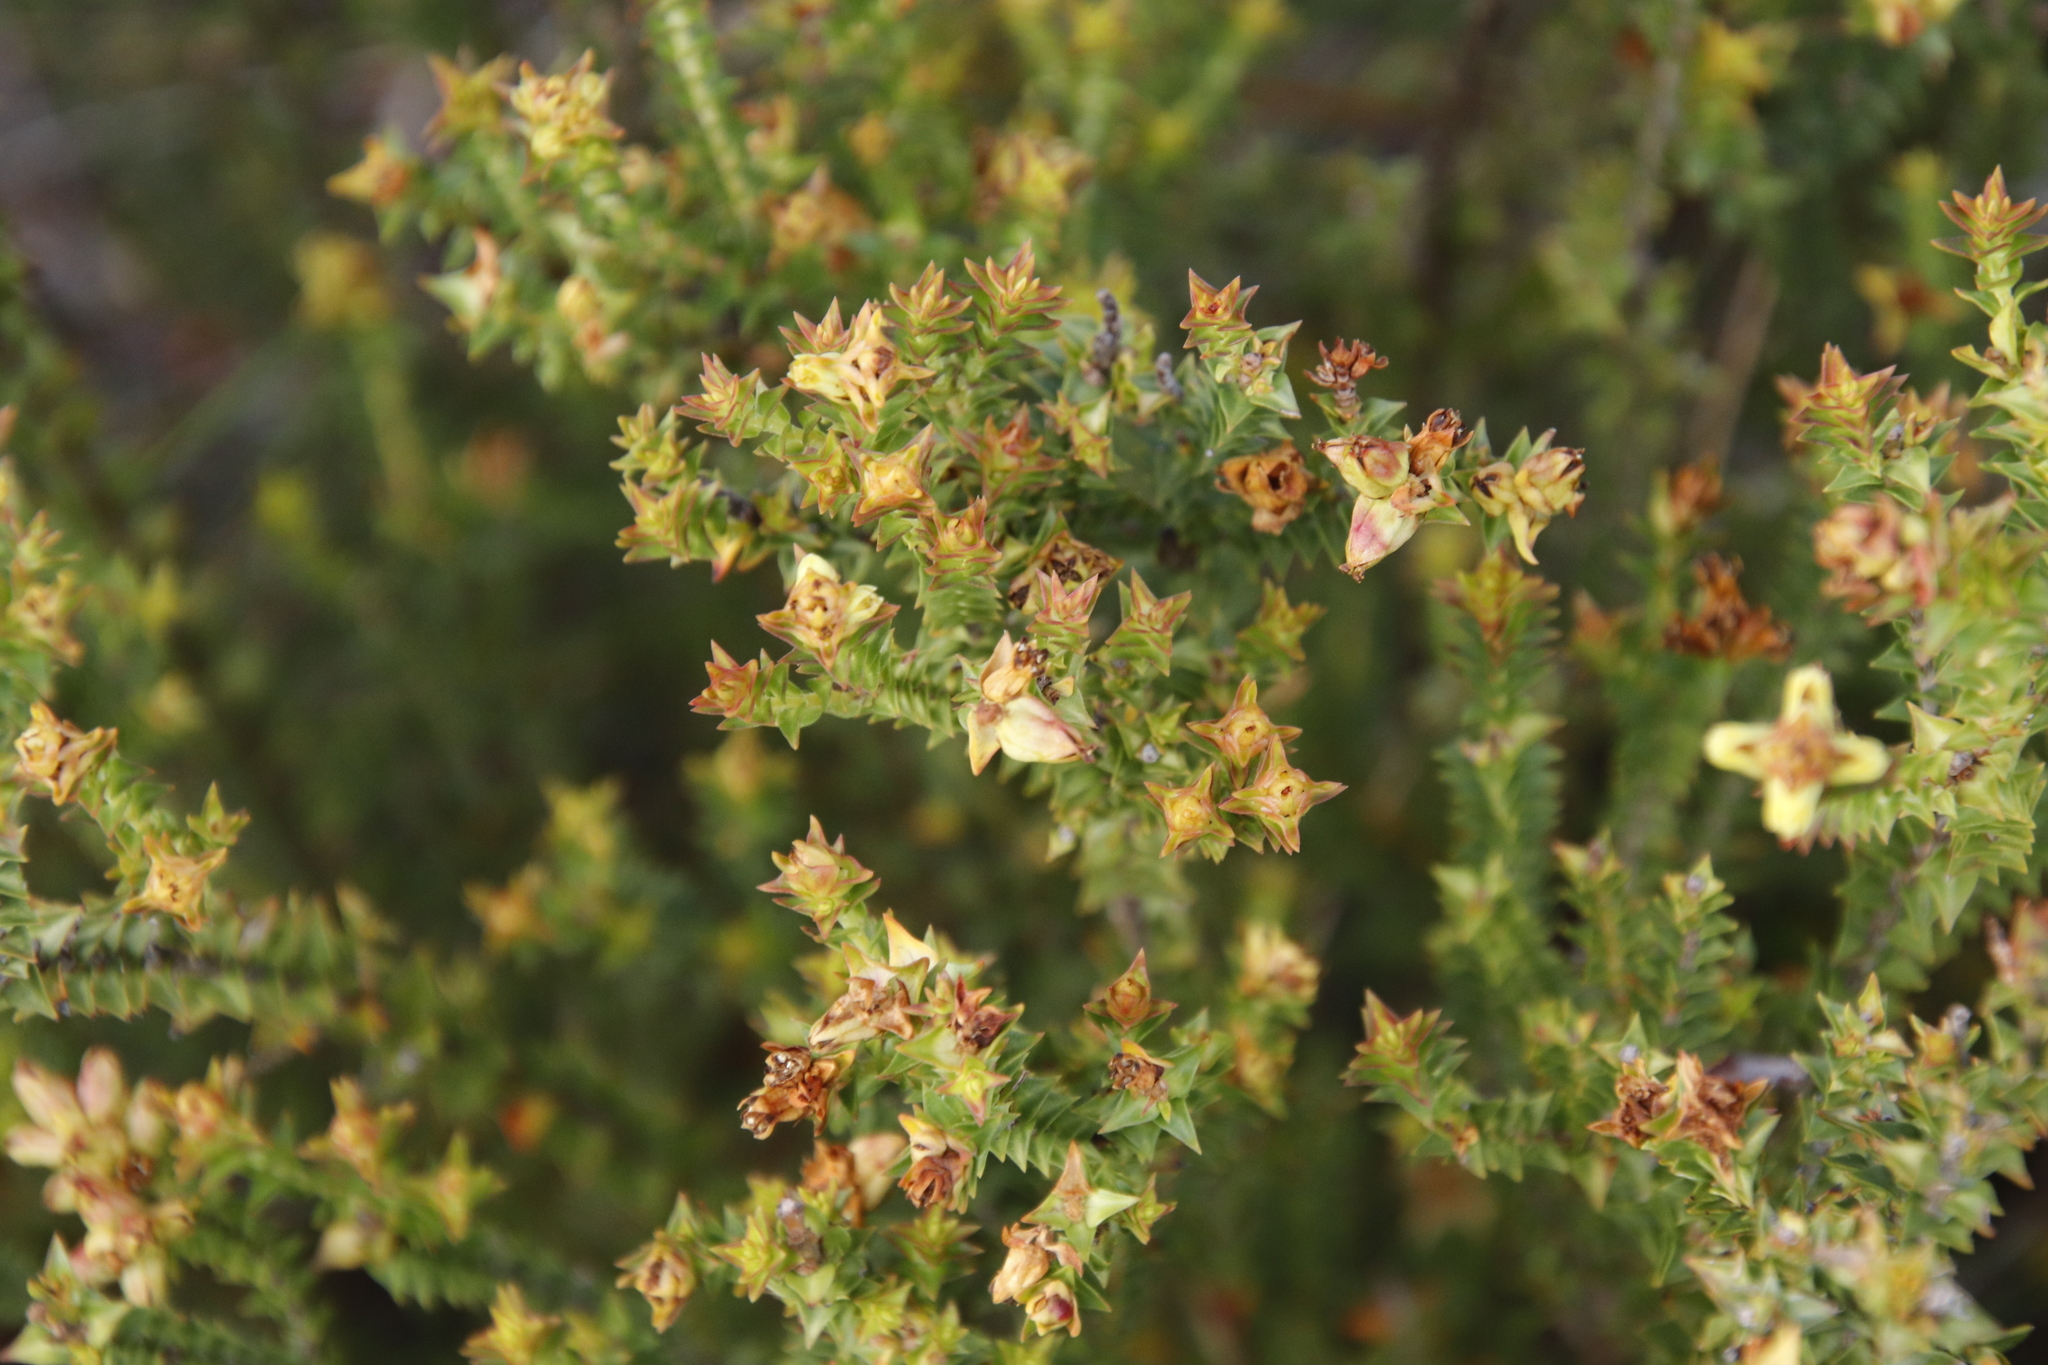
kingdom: Plantae
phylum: Tracheophyta
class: Magnoliopsida
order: Myrtales
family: Penaeaceae
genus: Penaea
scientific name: Penaea mucronata
